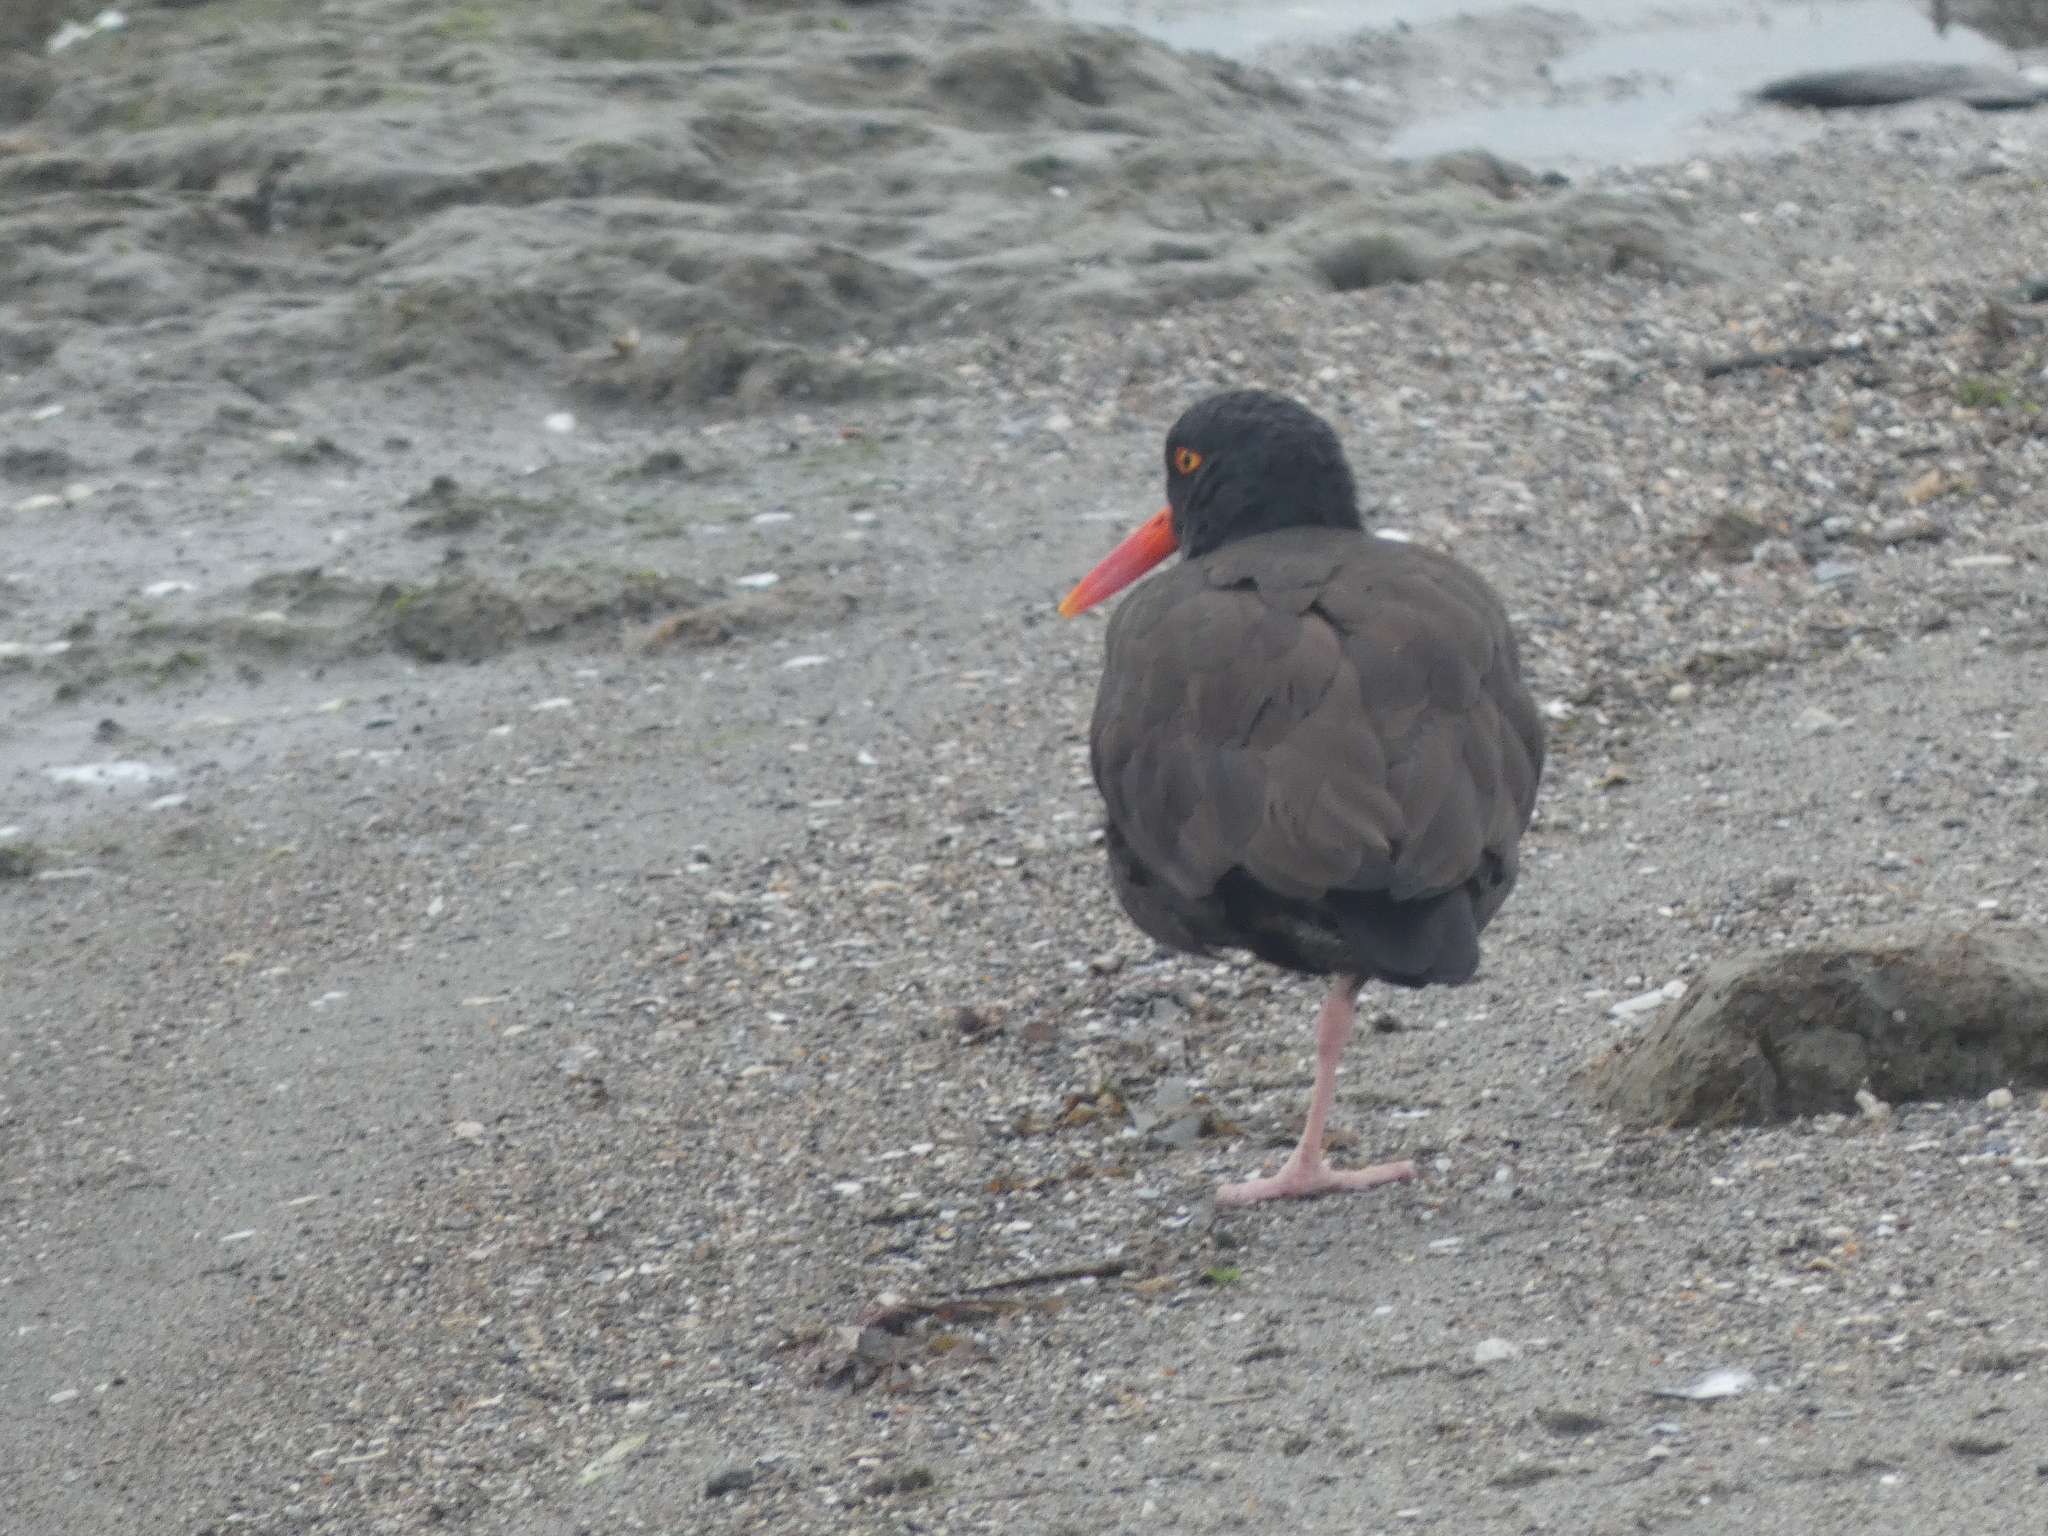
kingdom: Animalia
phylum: Chordata
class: Aves
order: Charadriiformes
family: Haematopodidae
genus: Haematopus
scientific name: Haematopus bachmani
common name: Black oystercatcher
